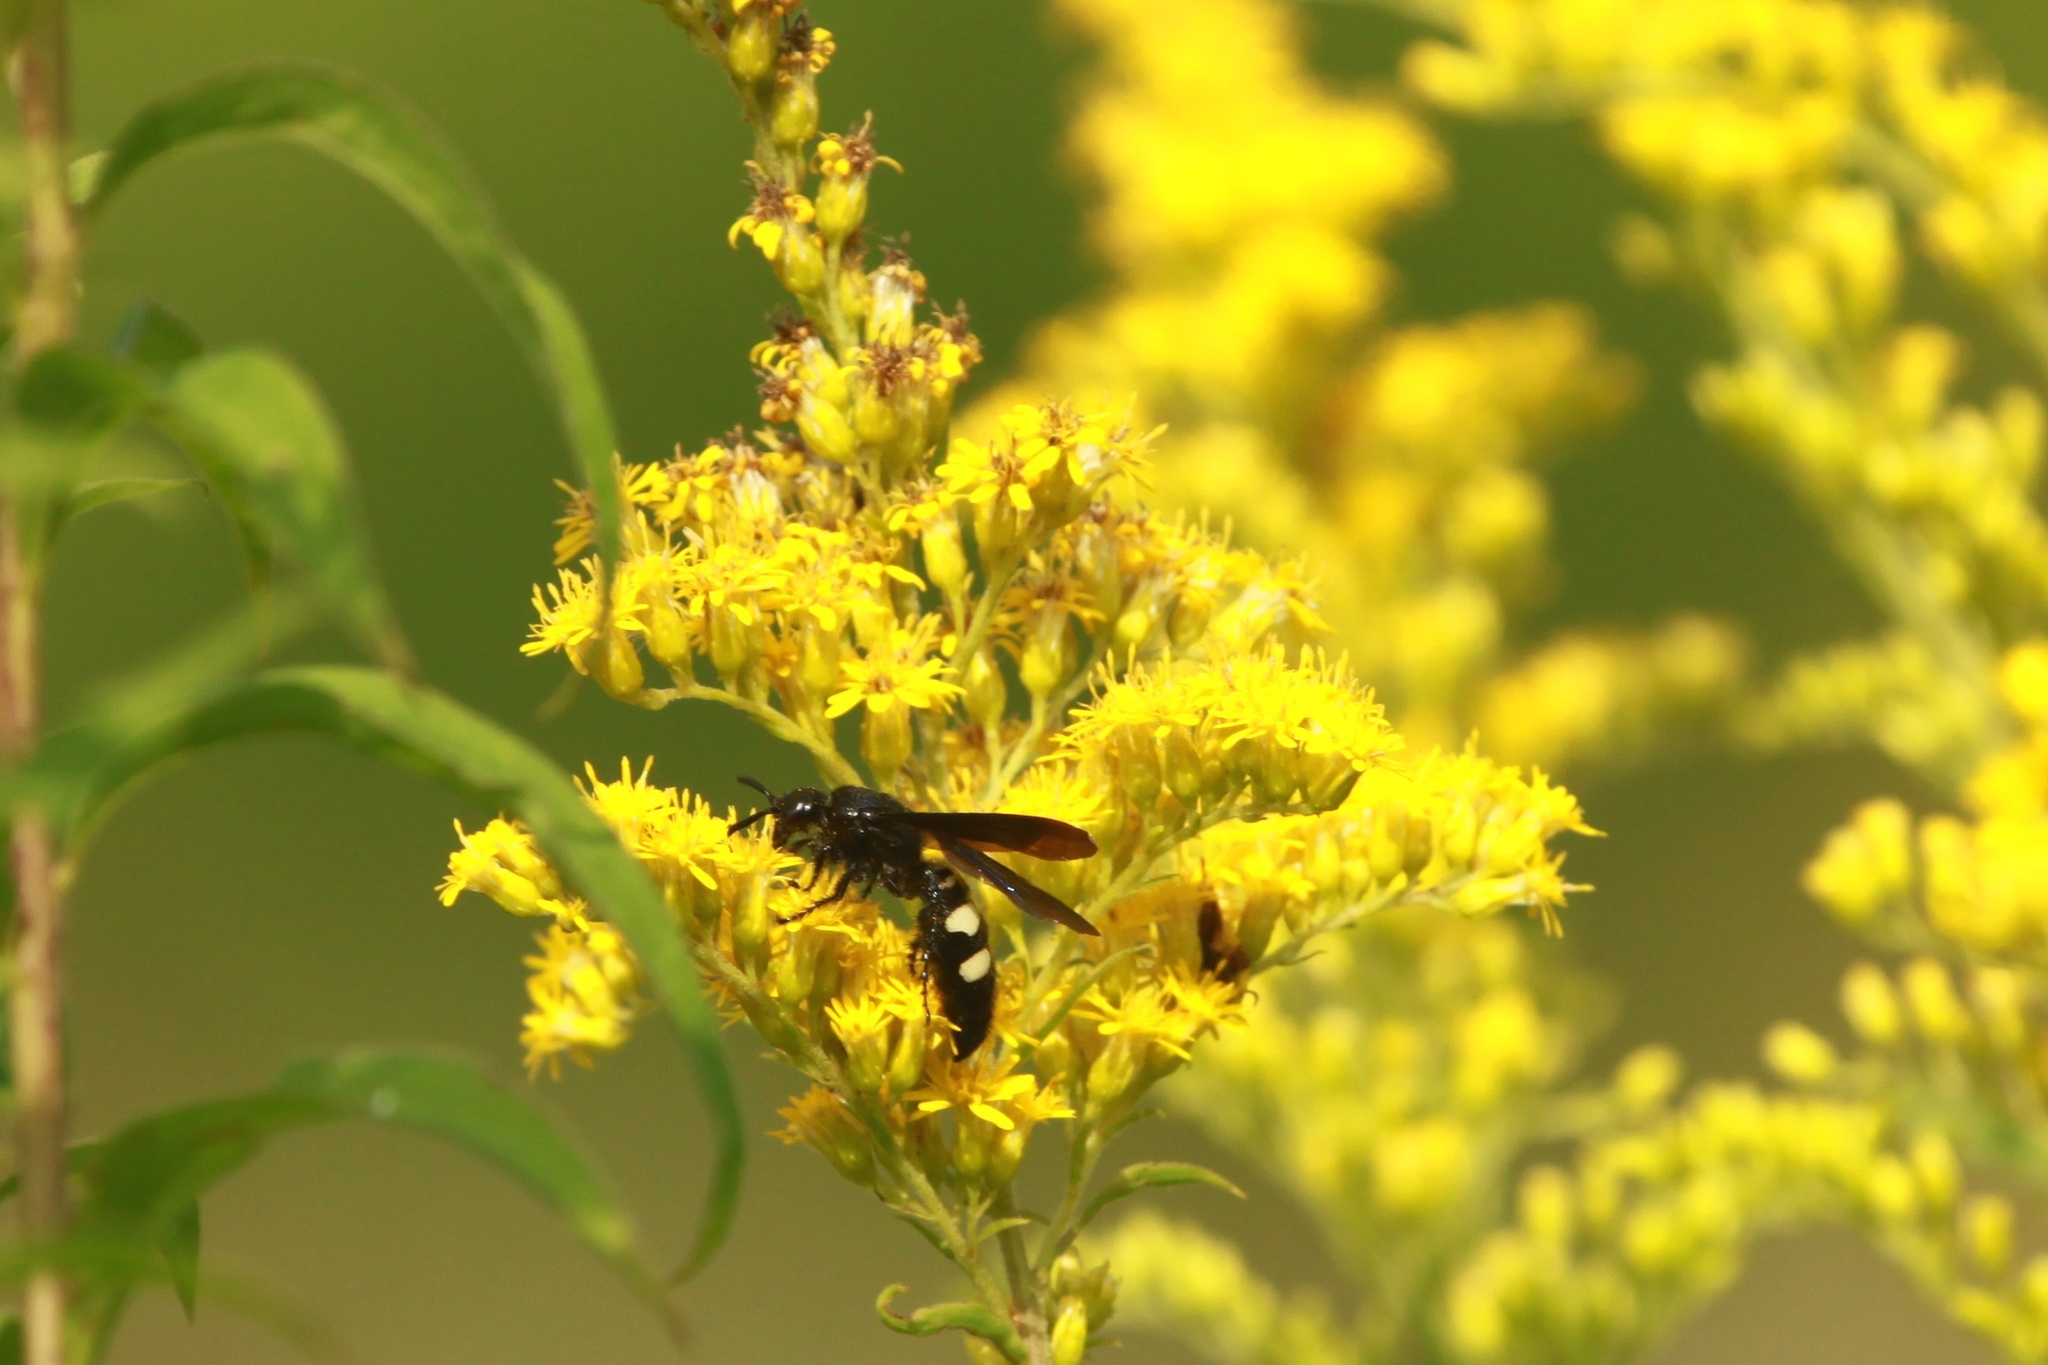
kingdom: Animalia
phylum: Arthropoda
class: Insecta
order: Hymenoptera
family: Scoliidae
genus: Scolia
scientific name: Scolia bicincta
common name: Double-banded scoliid wasp
